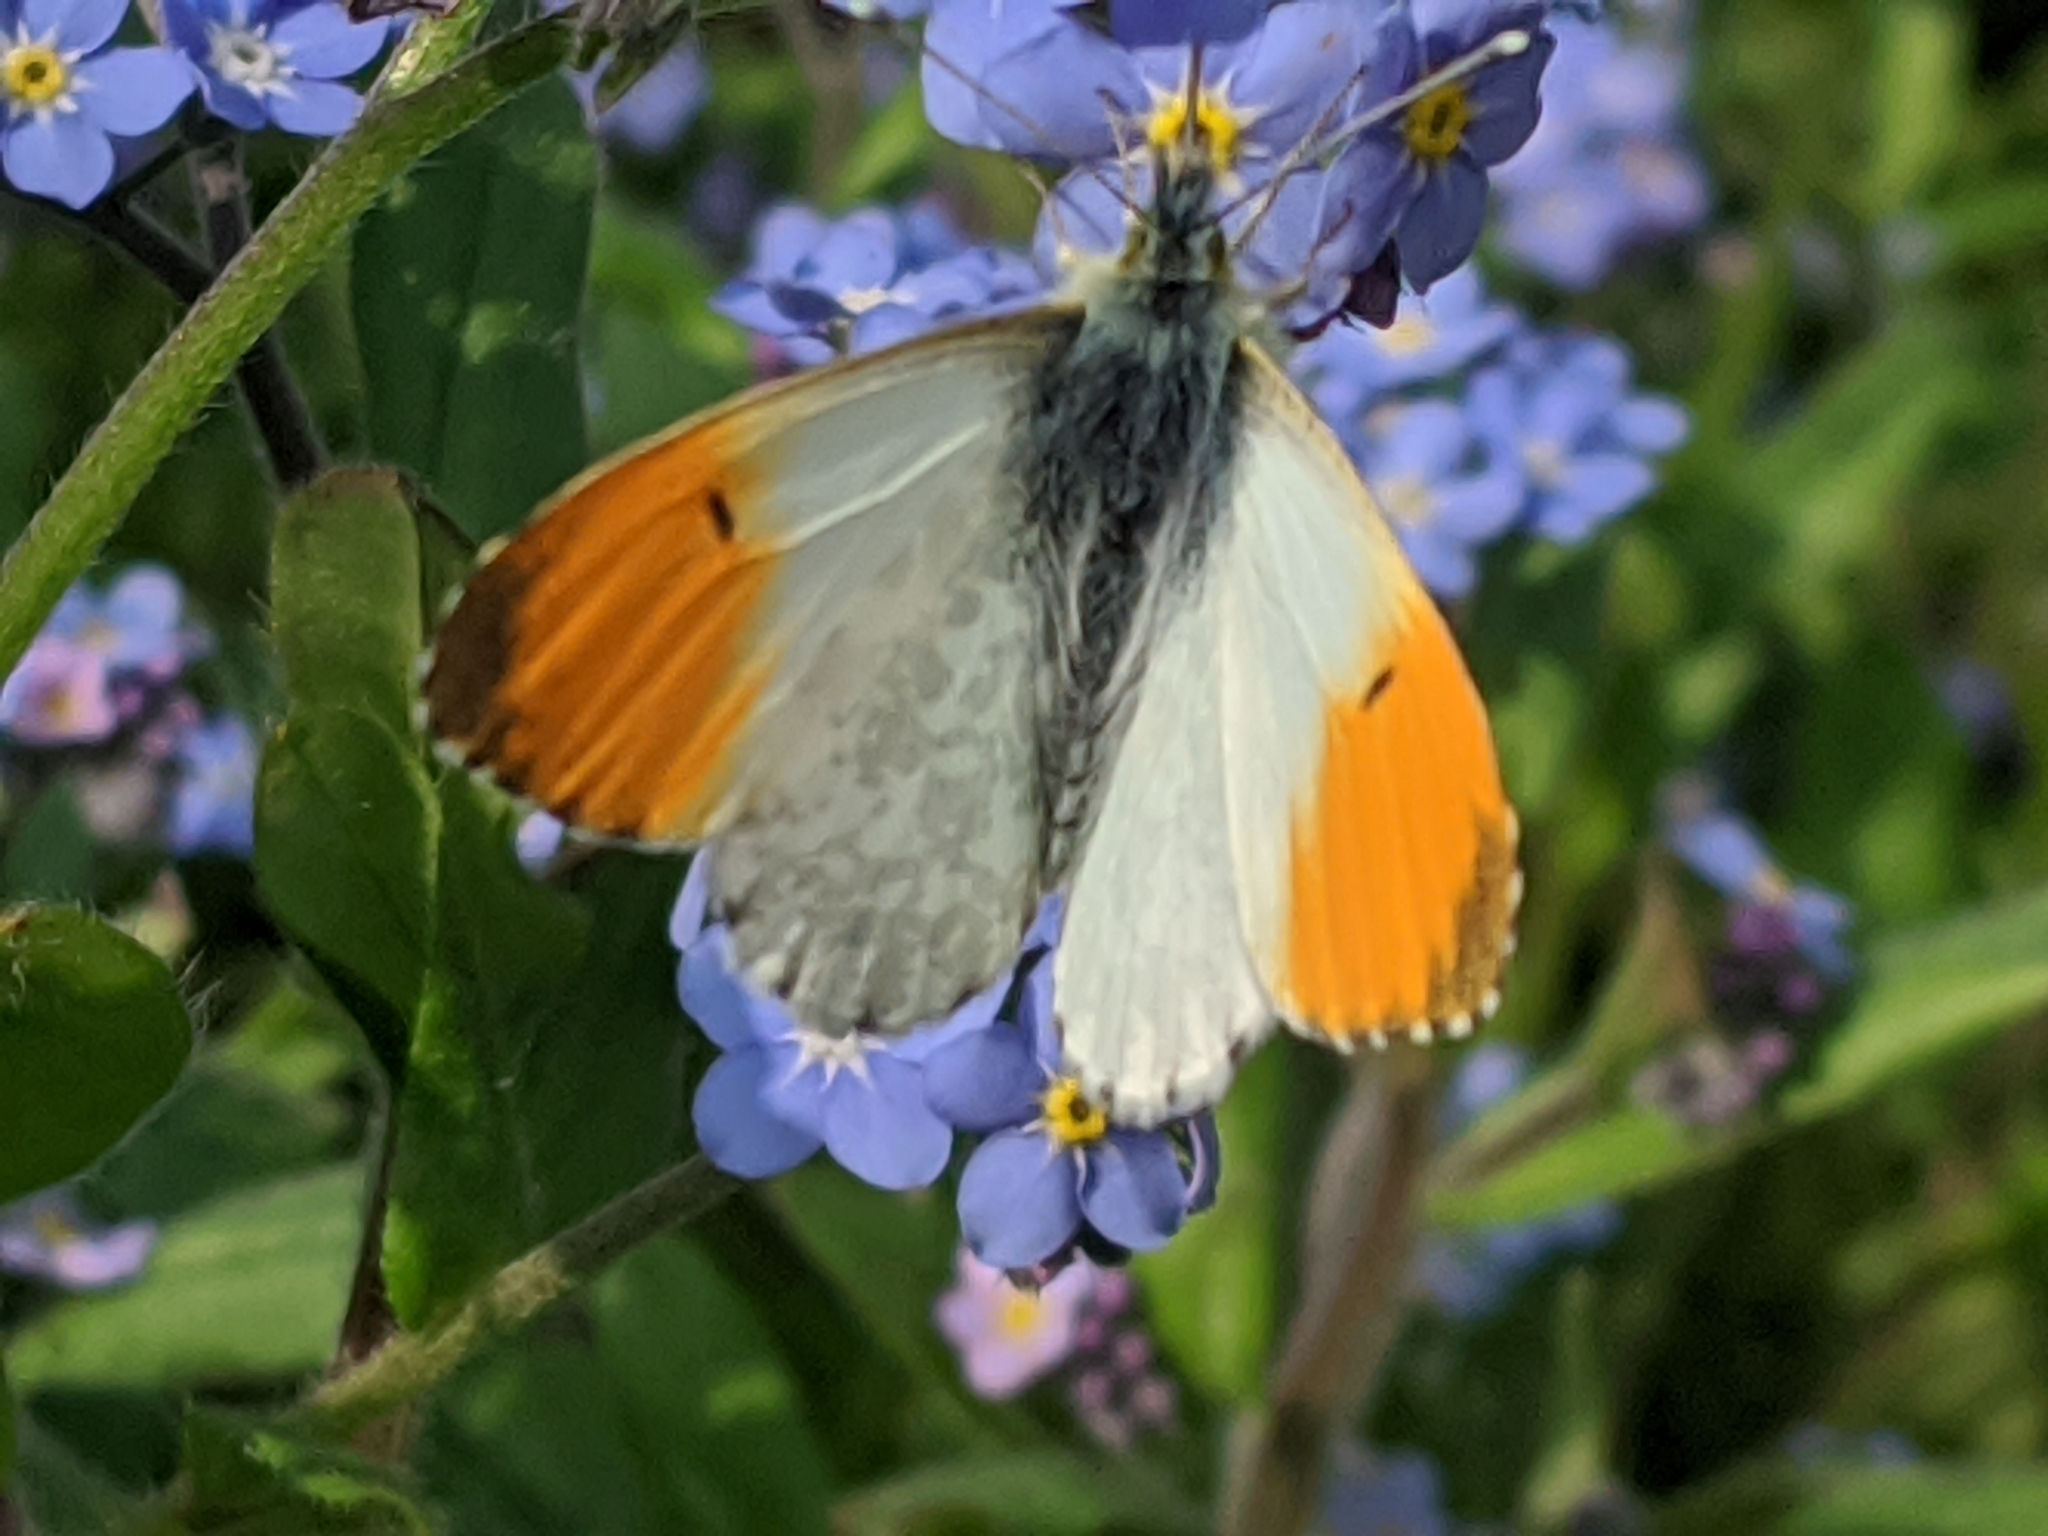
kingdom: Animalia
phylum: Arthropoda
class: Insecta
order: Lepidoptera
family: Pieridae
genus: Anthocharis
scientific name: Anthocharis cardamines
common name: Orange-tip
